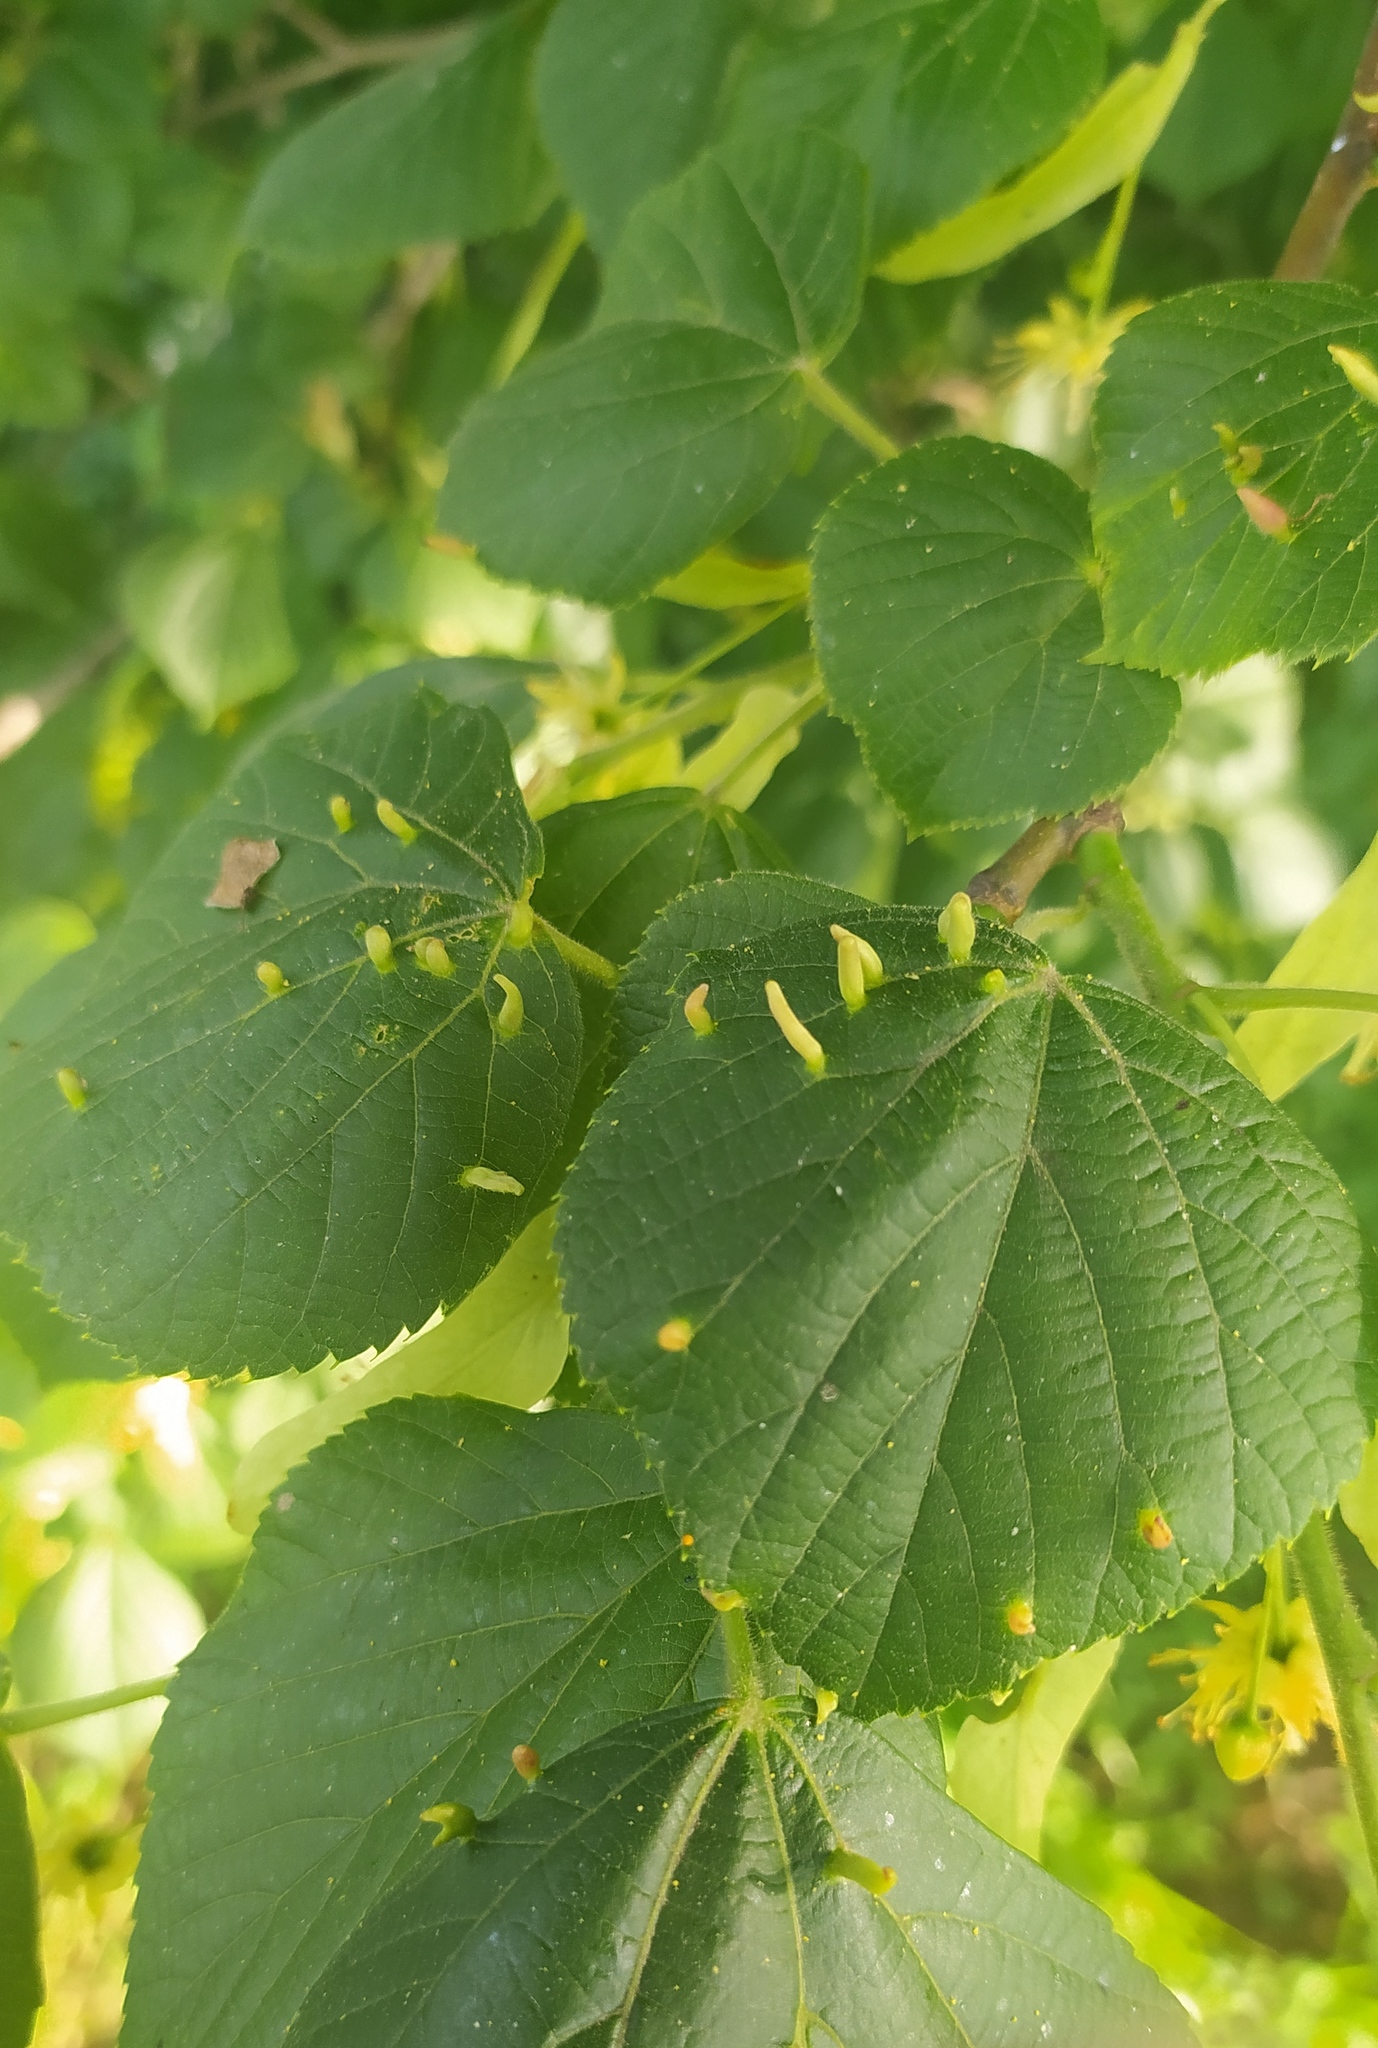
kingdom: Animalia
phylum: Arthropoda
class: Arachnida
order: Trombidiformes
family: Eriophyidae
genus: Eriophyes
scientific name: Eriophyes tiliae
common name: Red nail gall mite
